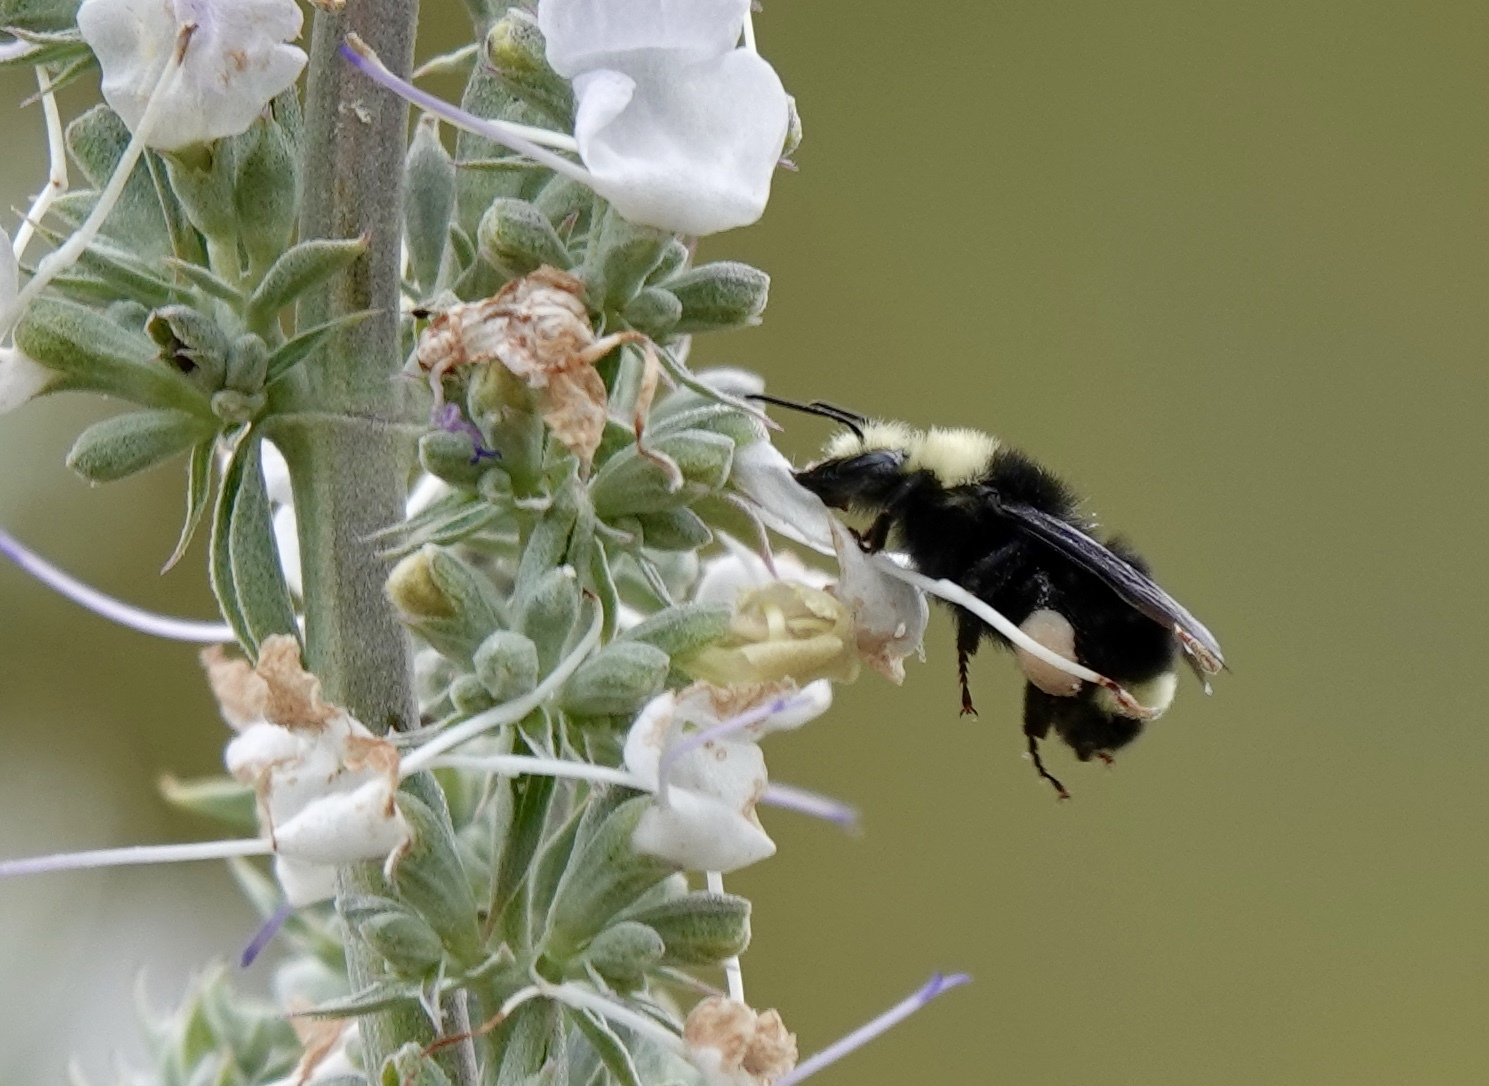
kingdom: Animalia
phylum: Arthropoda
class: Insecta
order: Hymenoptera
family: Apidae
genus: Bombus
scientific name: Bombus vosnesenskii
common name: Vosnesensky bumble bee
